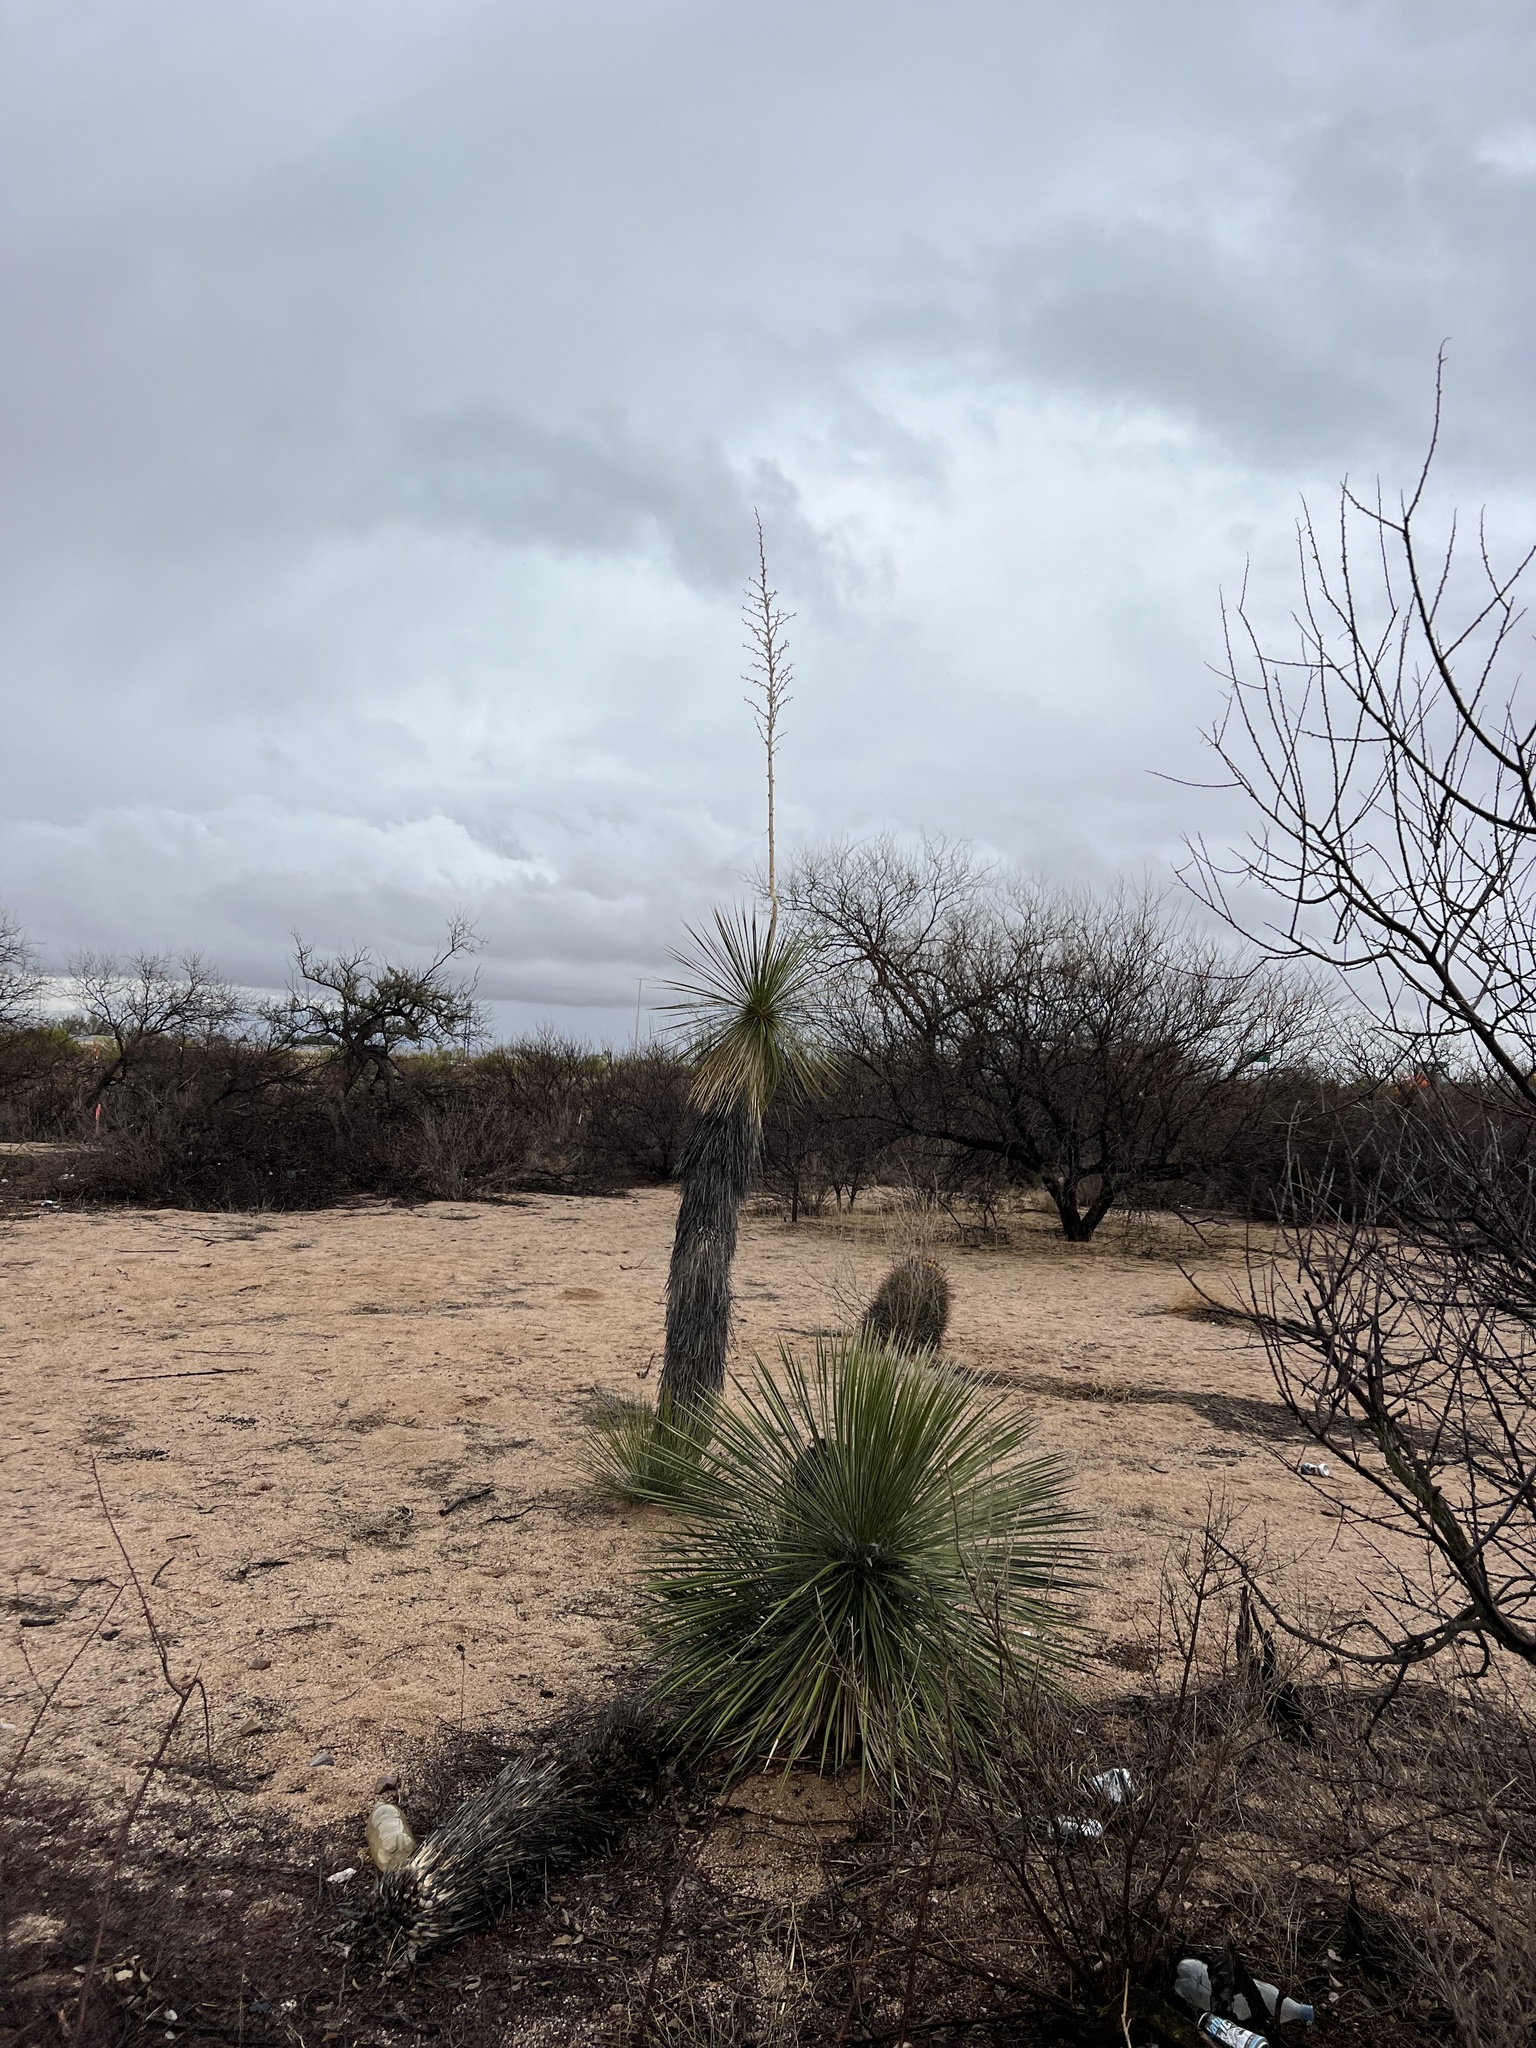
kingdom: Plantae
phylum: Tracheophyta
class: Liliopsida
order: Asparagales
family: Asparagaceae
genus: Yucca
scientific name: Yucca elata
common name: Palmella
